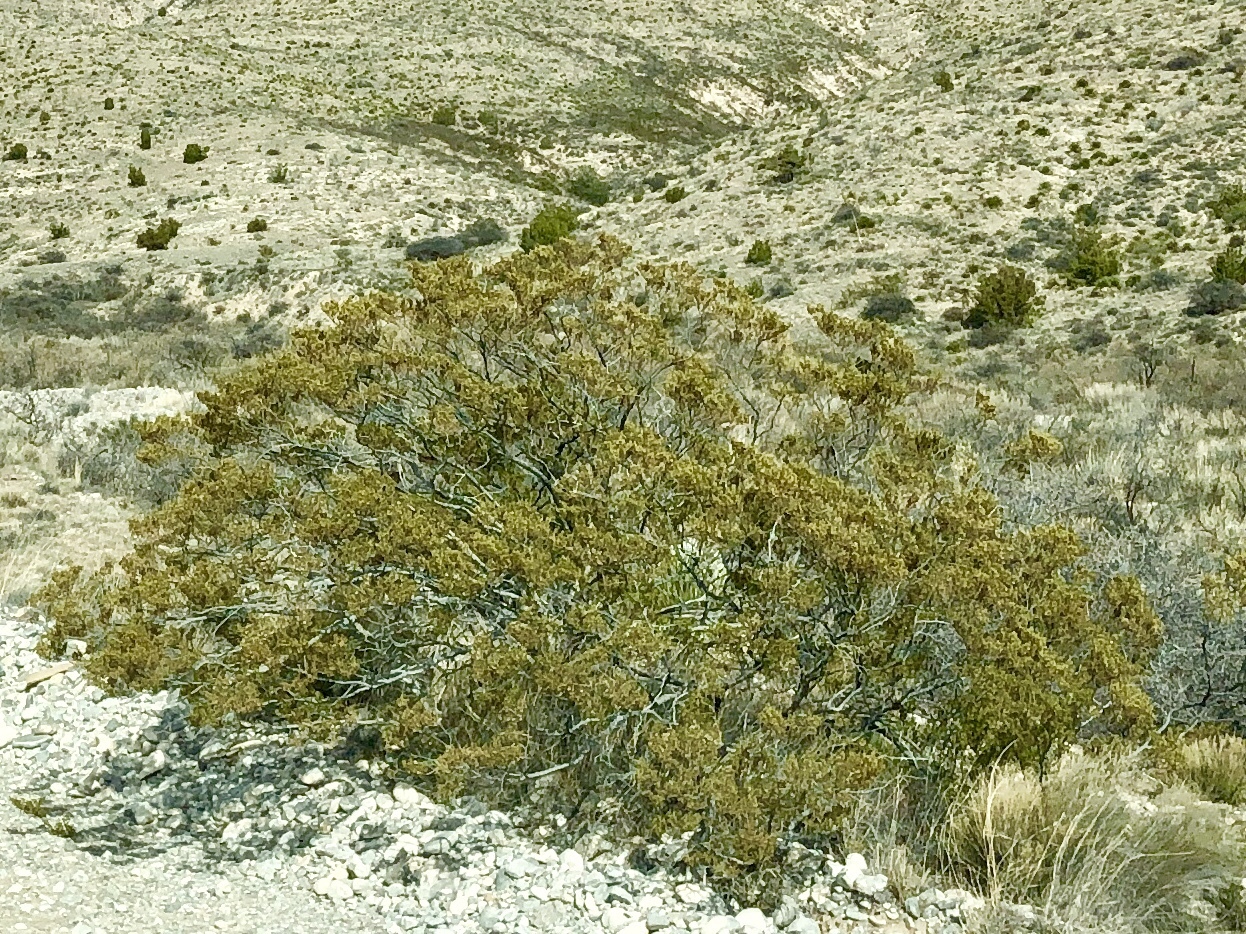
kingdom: Plantae
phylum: Tracheophyta
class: Magnoliopsida
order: Zygophyllales
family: Zygophyllaceae
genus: Larrea
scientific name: Larrea tridentata
